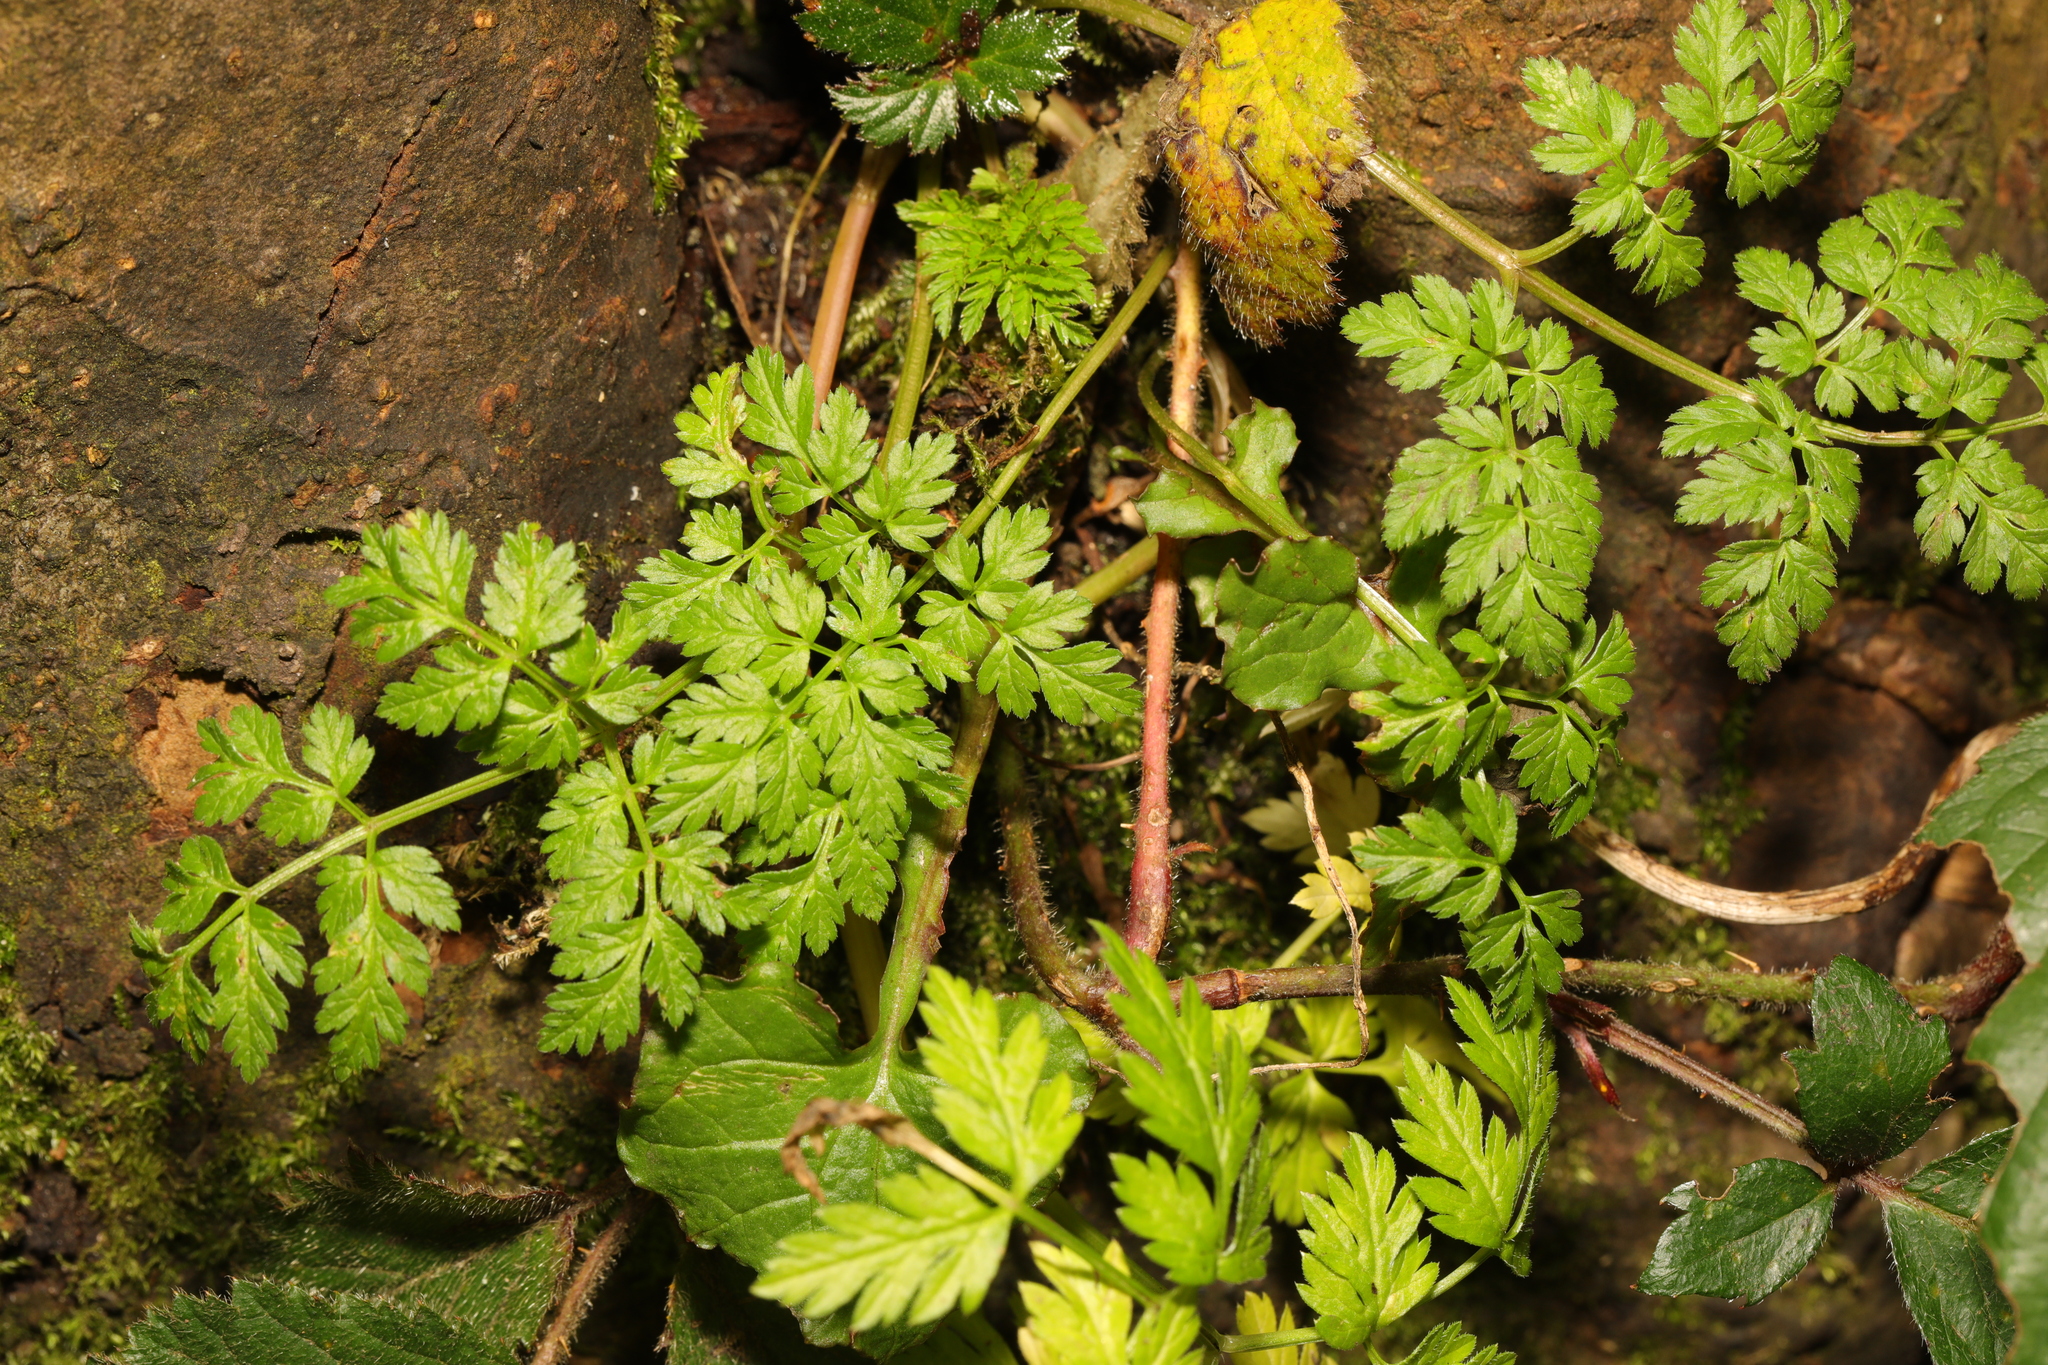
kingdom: Plantae
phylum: Tracheophyta
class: Magnoliopsida
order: Apiales
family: Apiaceae
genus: Anthriscus
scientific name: Anthriscus sylvestris
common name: Cow parsley
